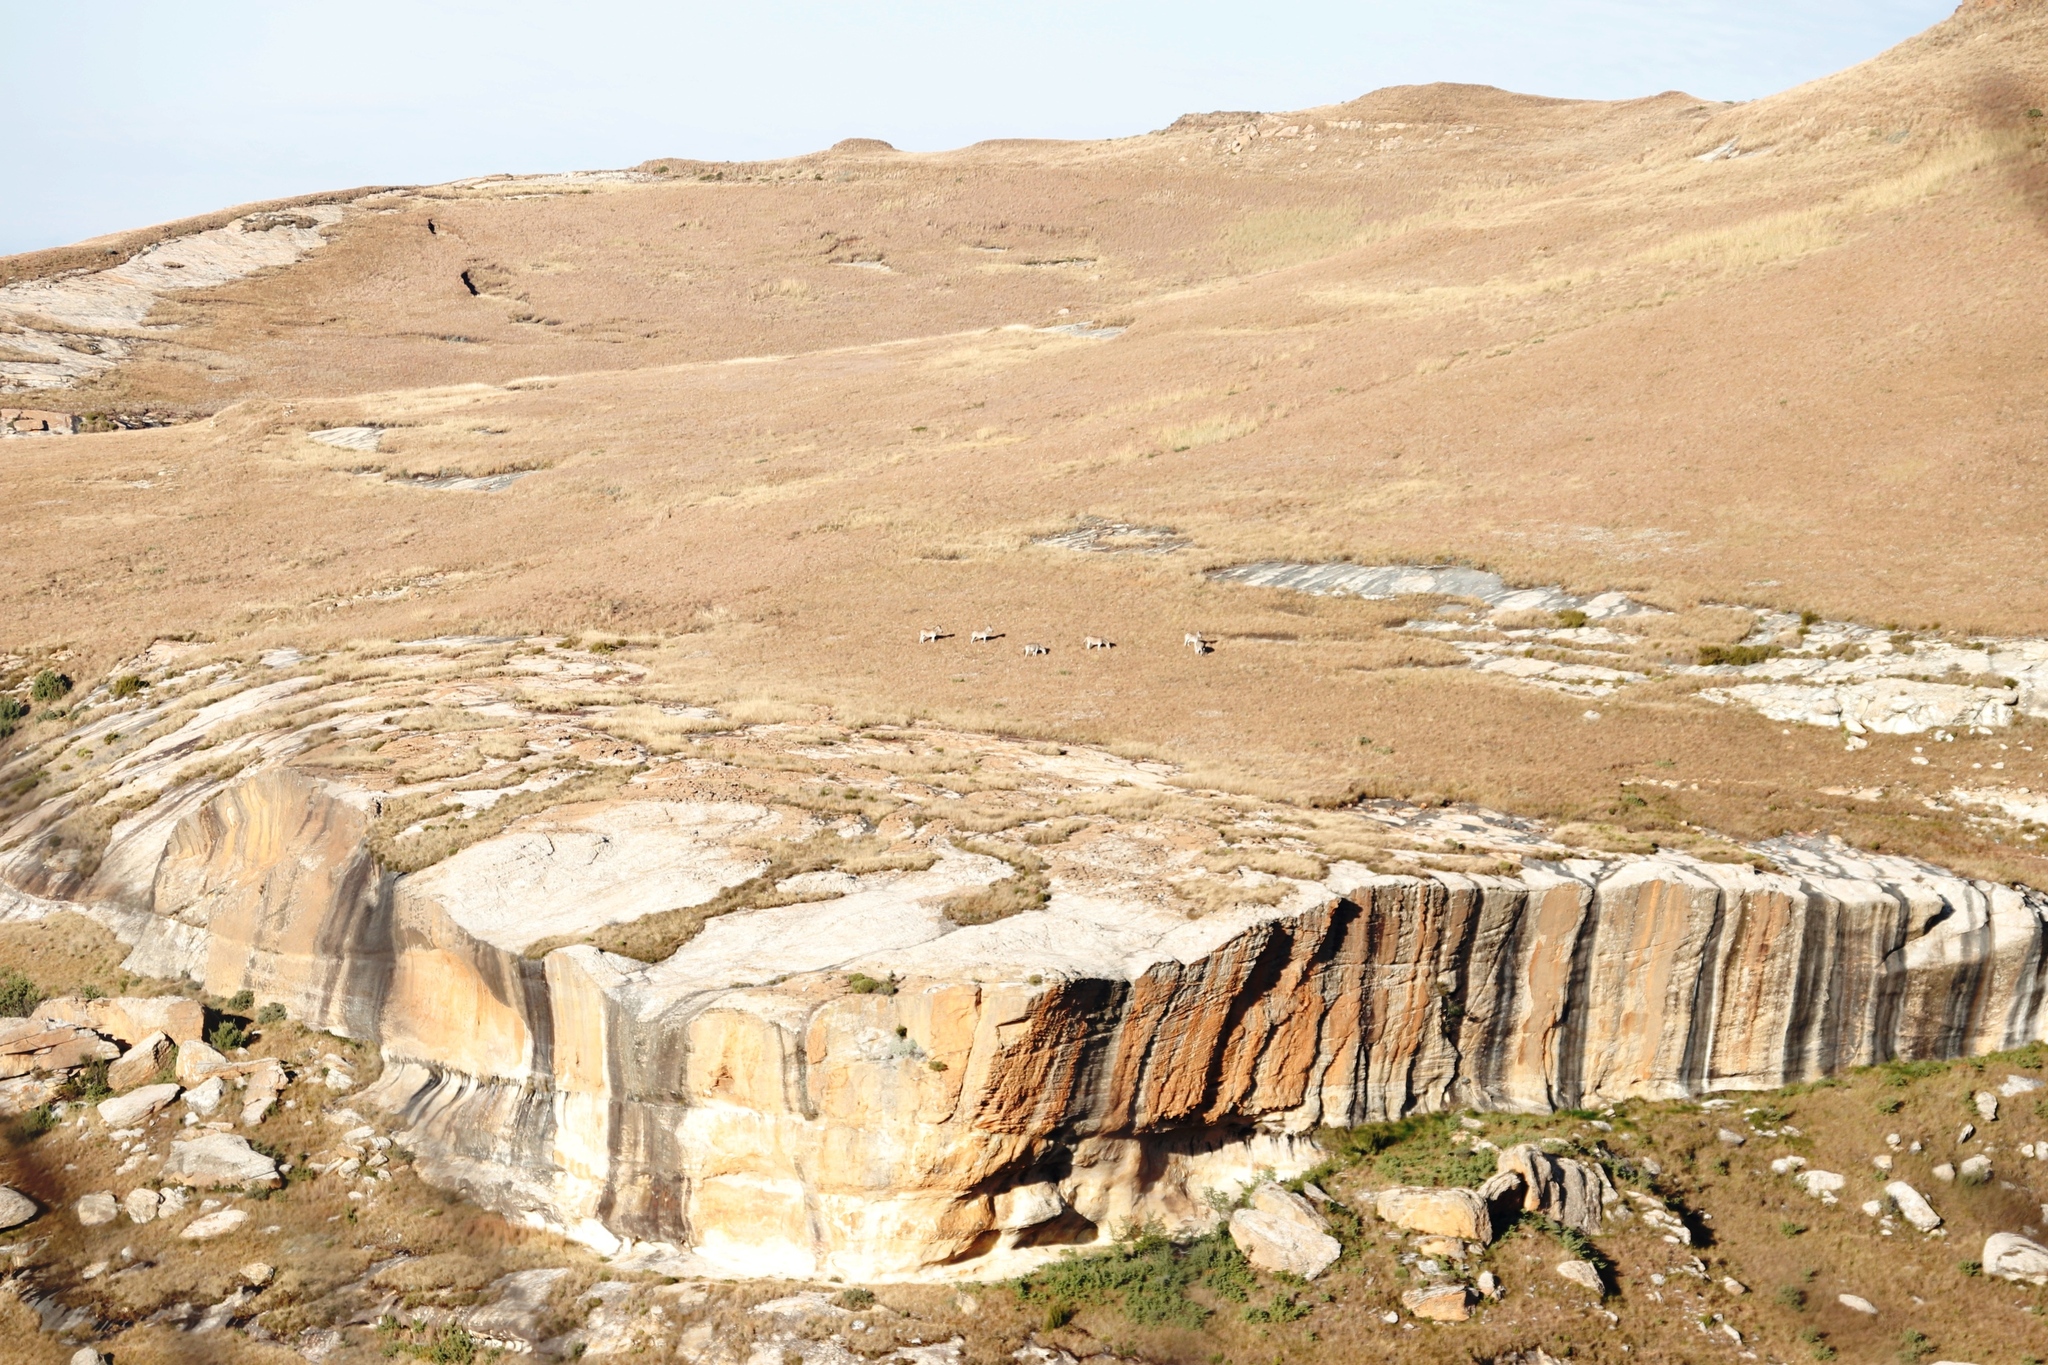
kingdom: Animalia
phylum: Chordata
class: Mammalia
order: Perissodactyla
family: Equidae
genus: Equus
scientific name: Equus quagga
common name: Plains zebra
